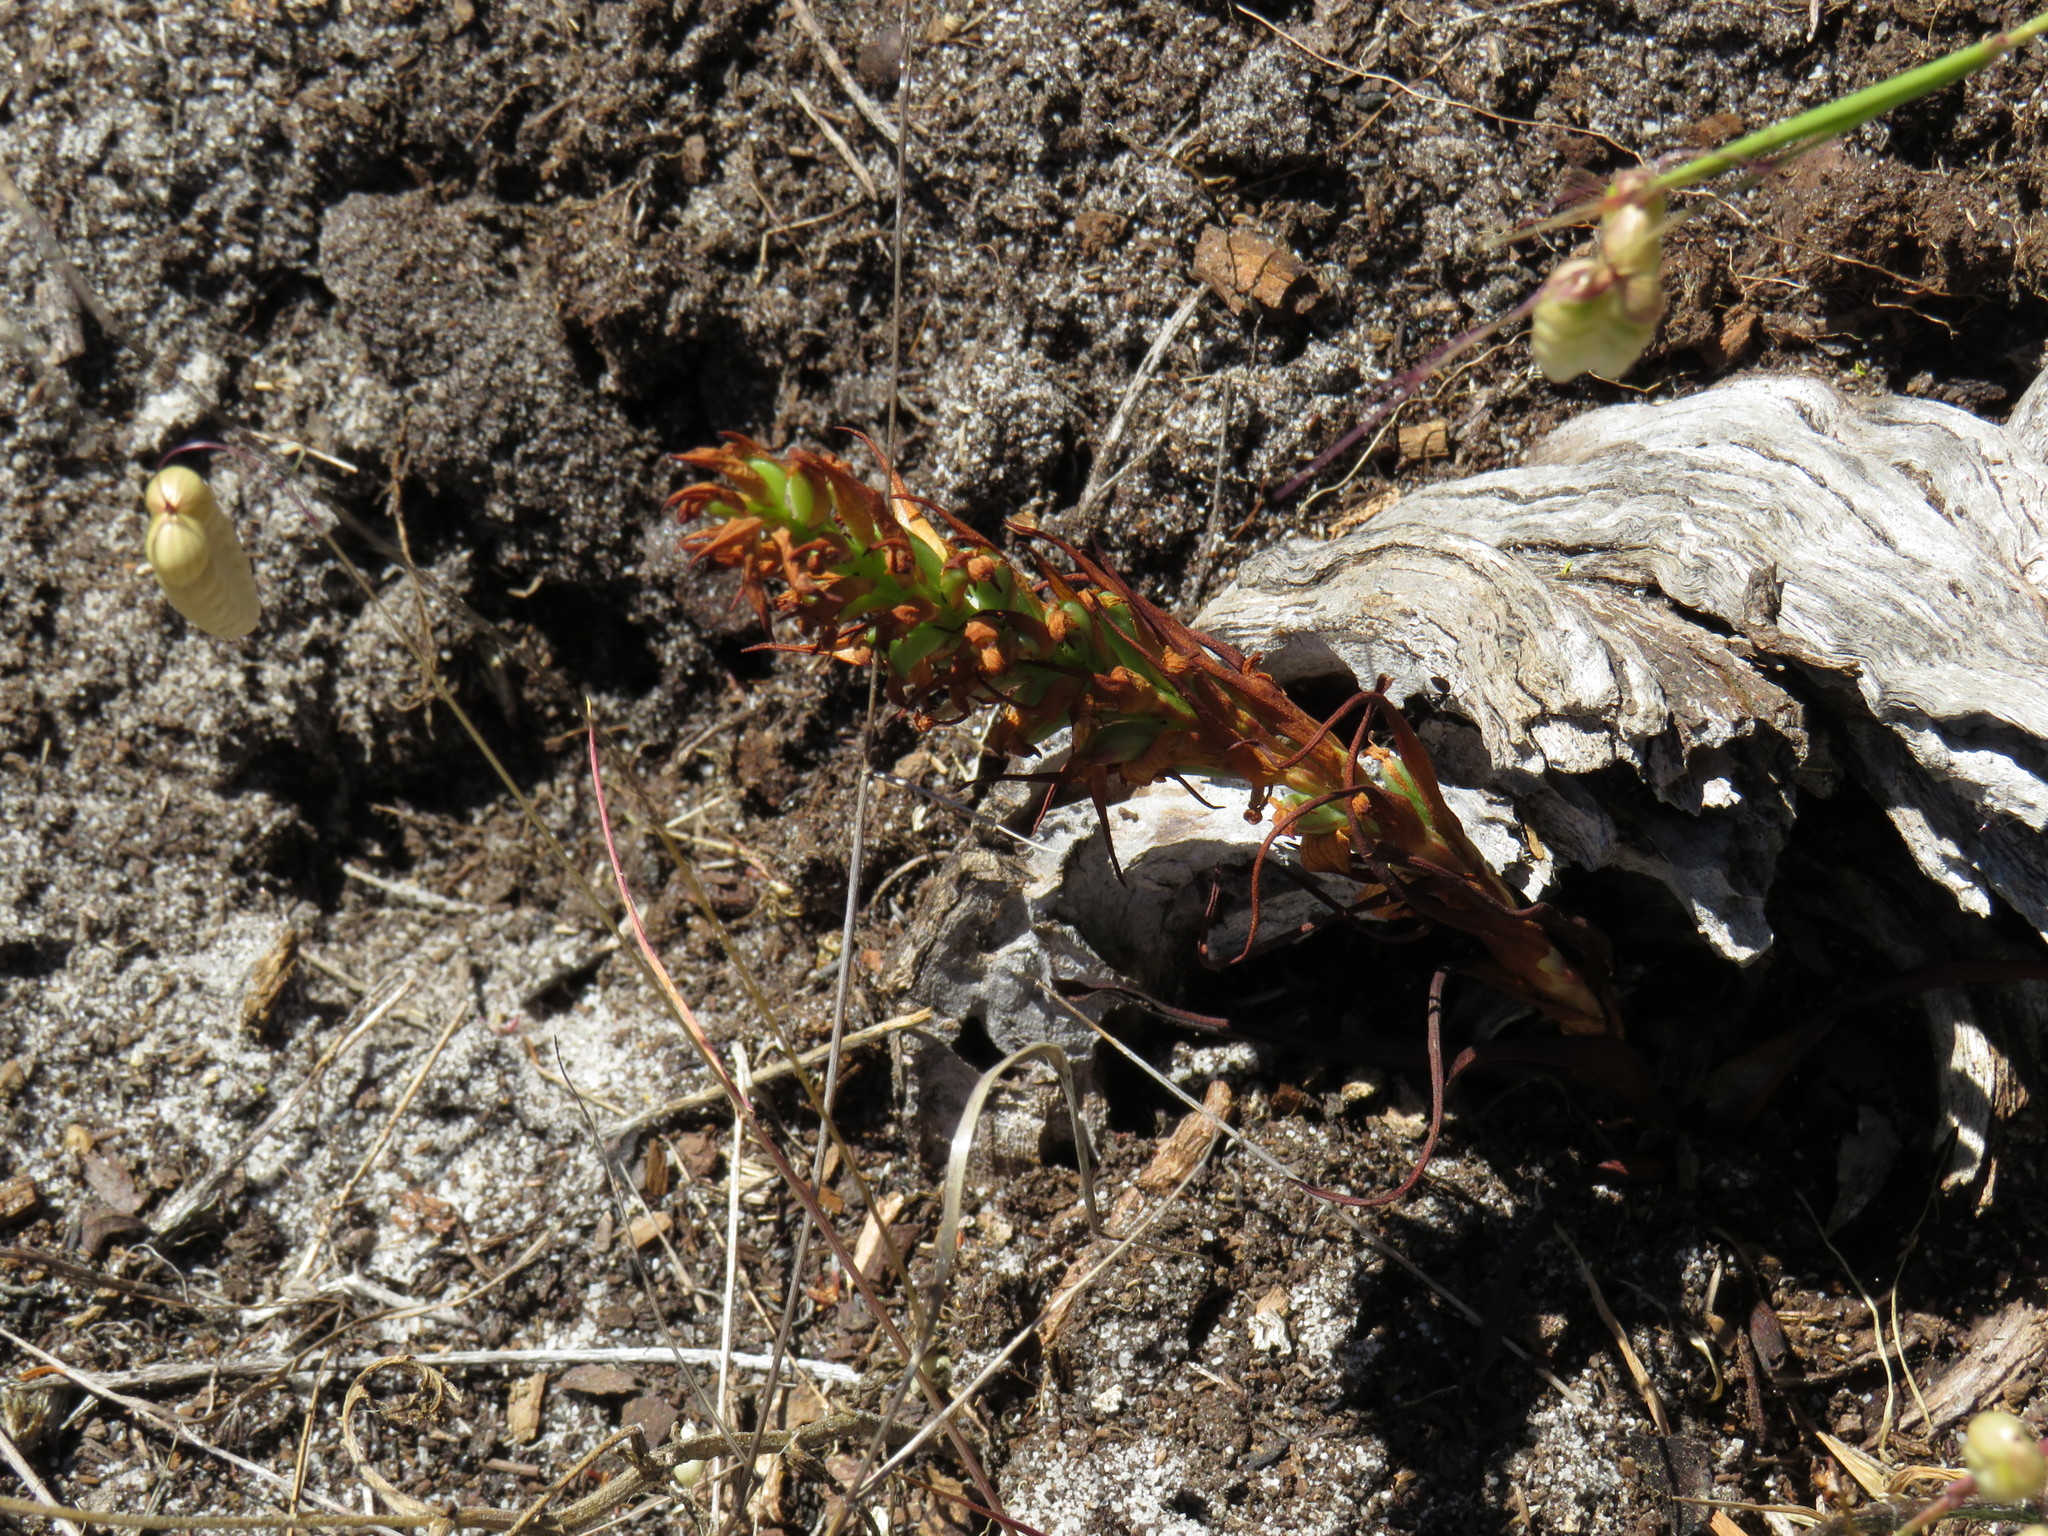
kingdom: Plantae
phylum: Tracheophyta
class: Liliopsida
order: Asparagales
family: Orchidaceae
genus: Disa
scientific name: Disa bracteata
